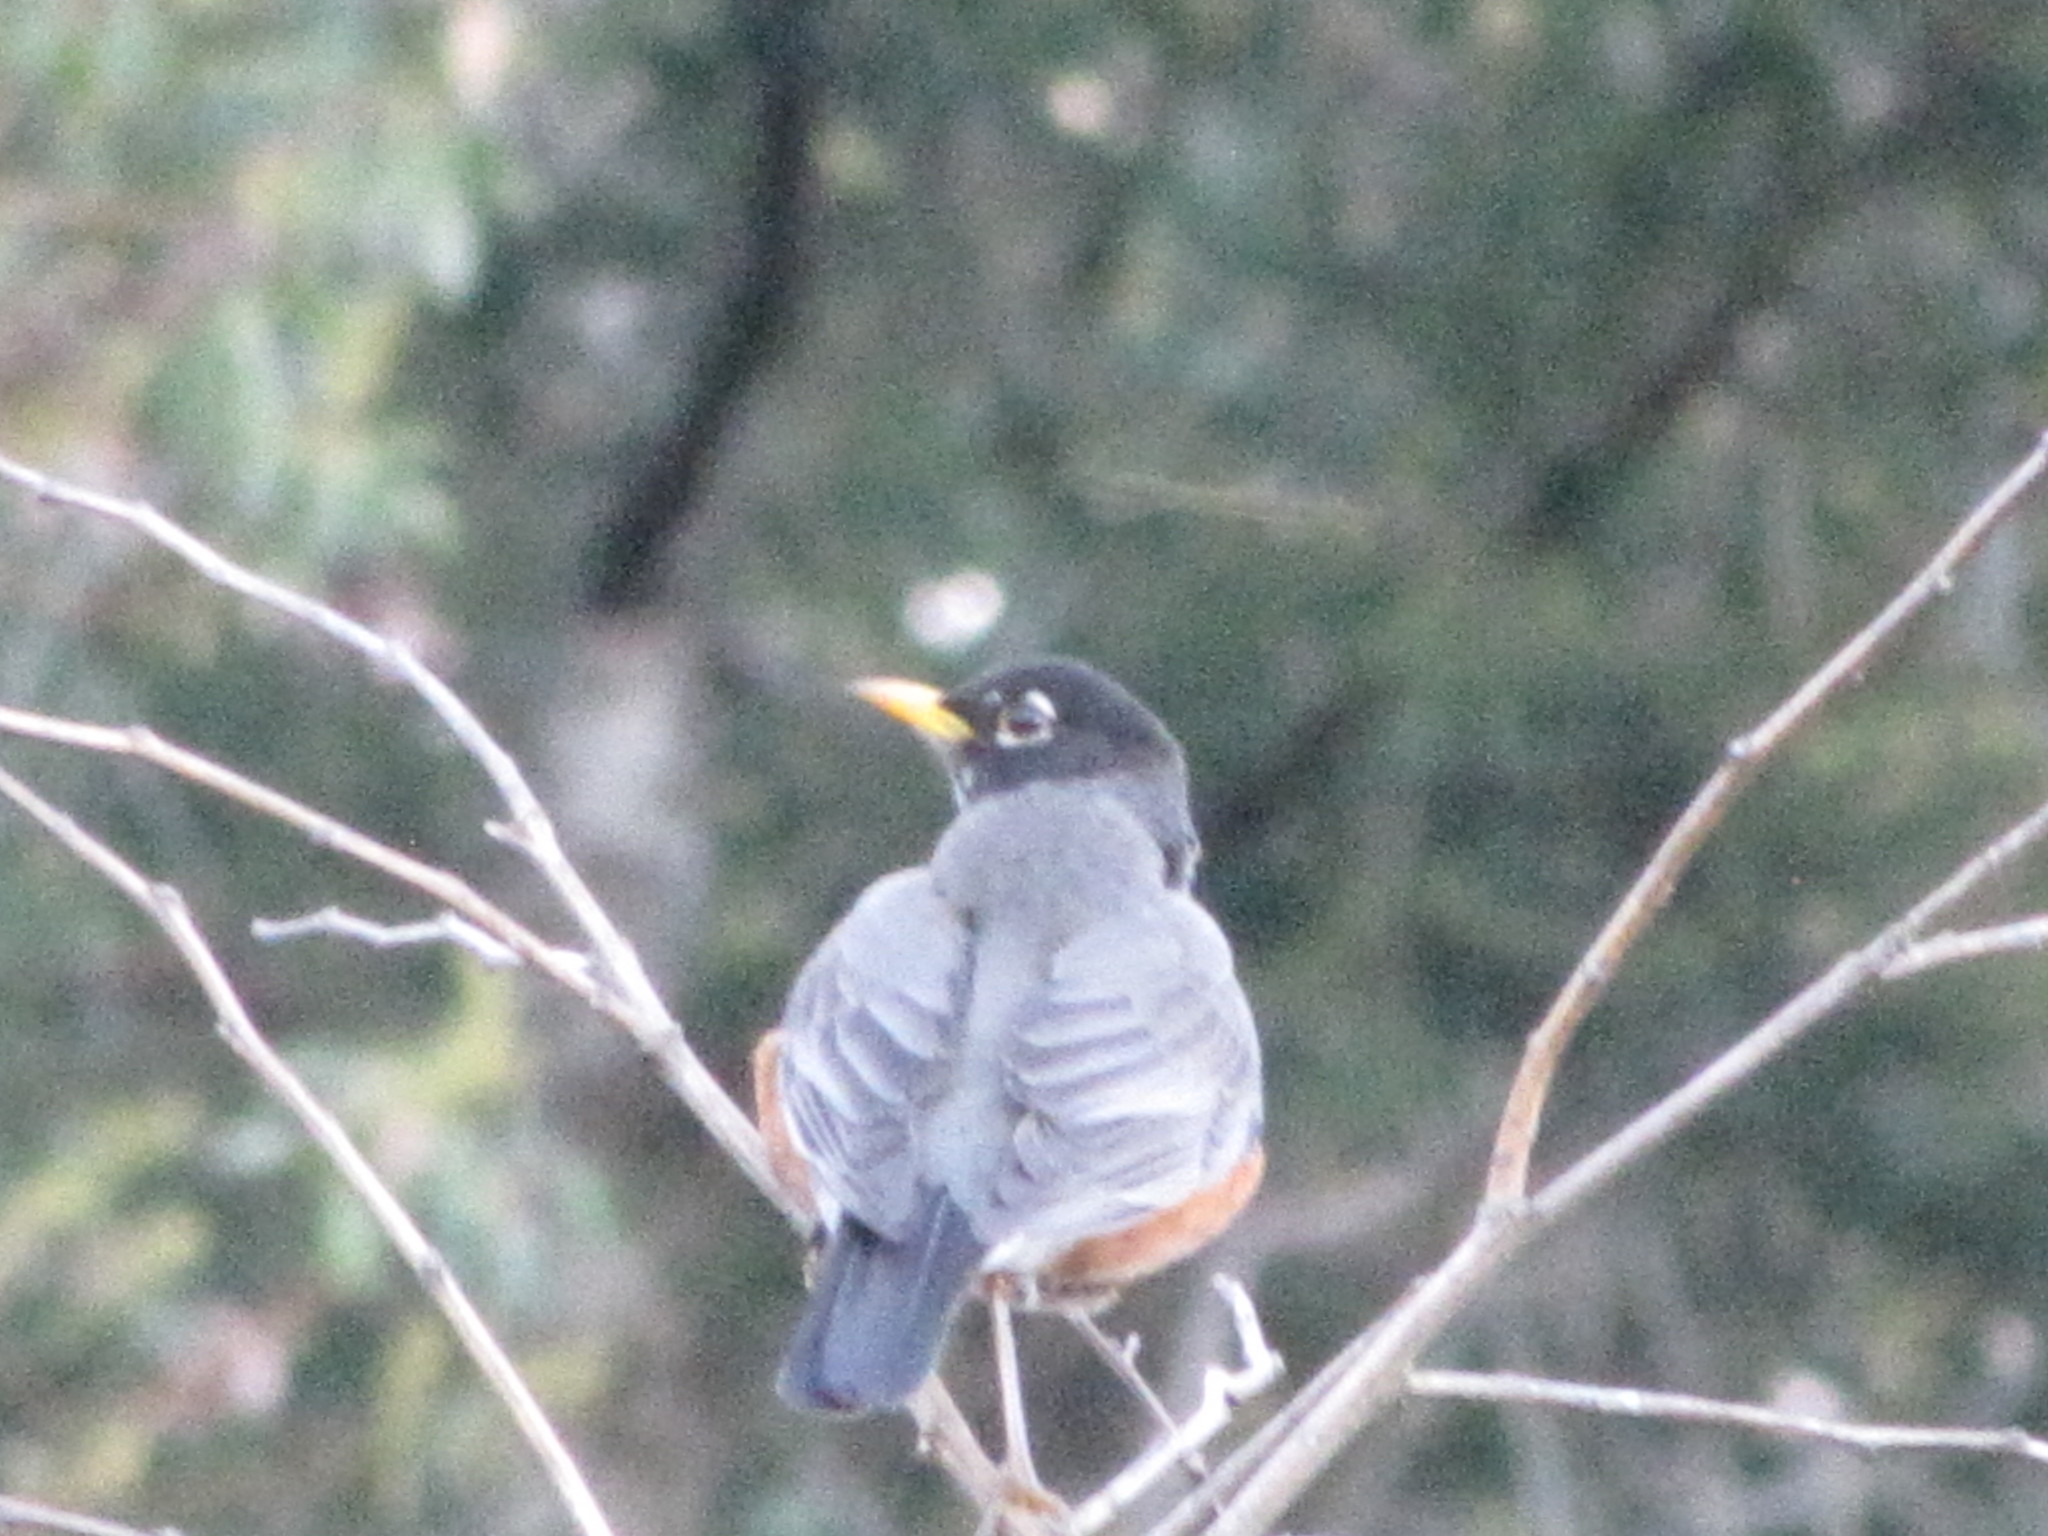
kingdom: Animalia
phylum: Chordata
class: Aves
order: Passeriformes
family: Turdidae
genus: Turdus
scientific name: Turdus migratorius
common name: American robin
